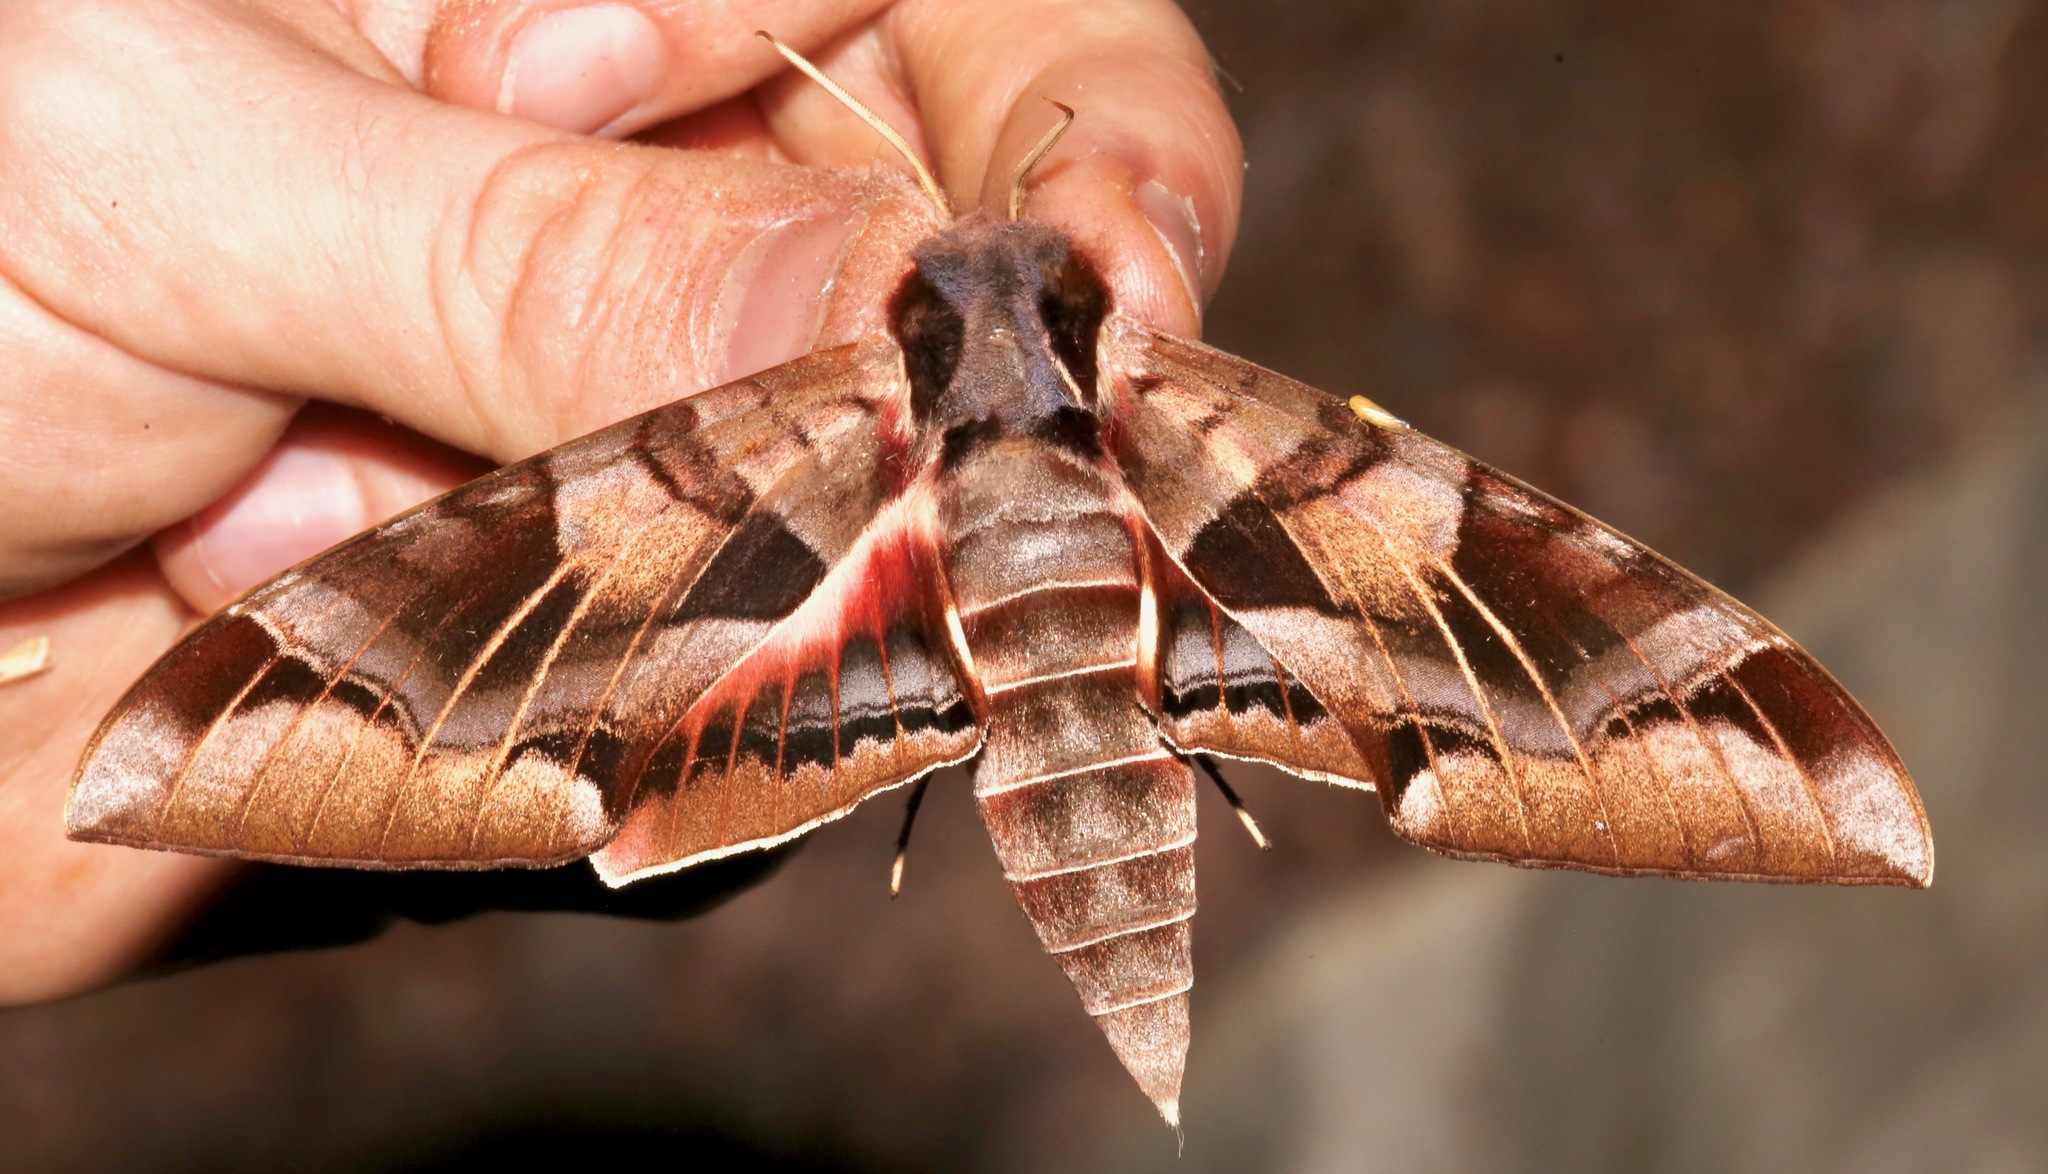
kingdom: Animalia
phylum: Arthropoda
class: Insecta
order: Lepidoptera
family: Sphingidae
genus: Eumorpha
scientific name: Eumorpha typhon
